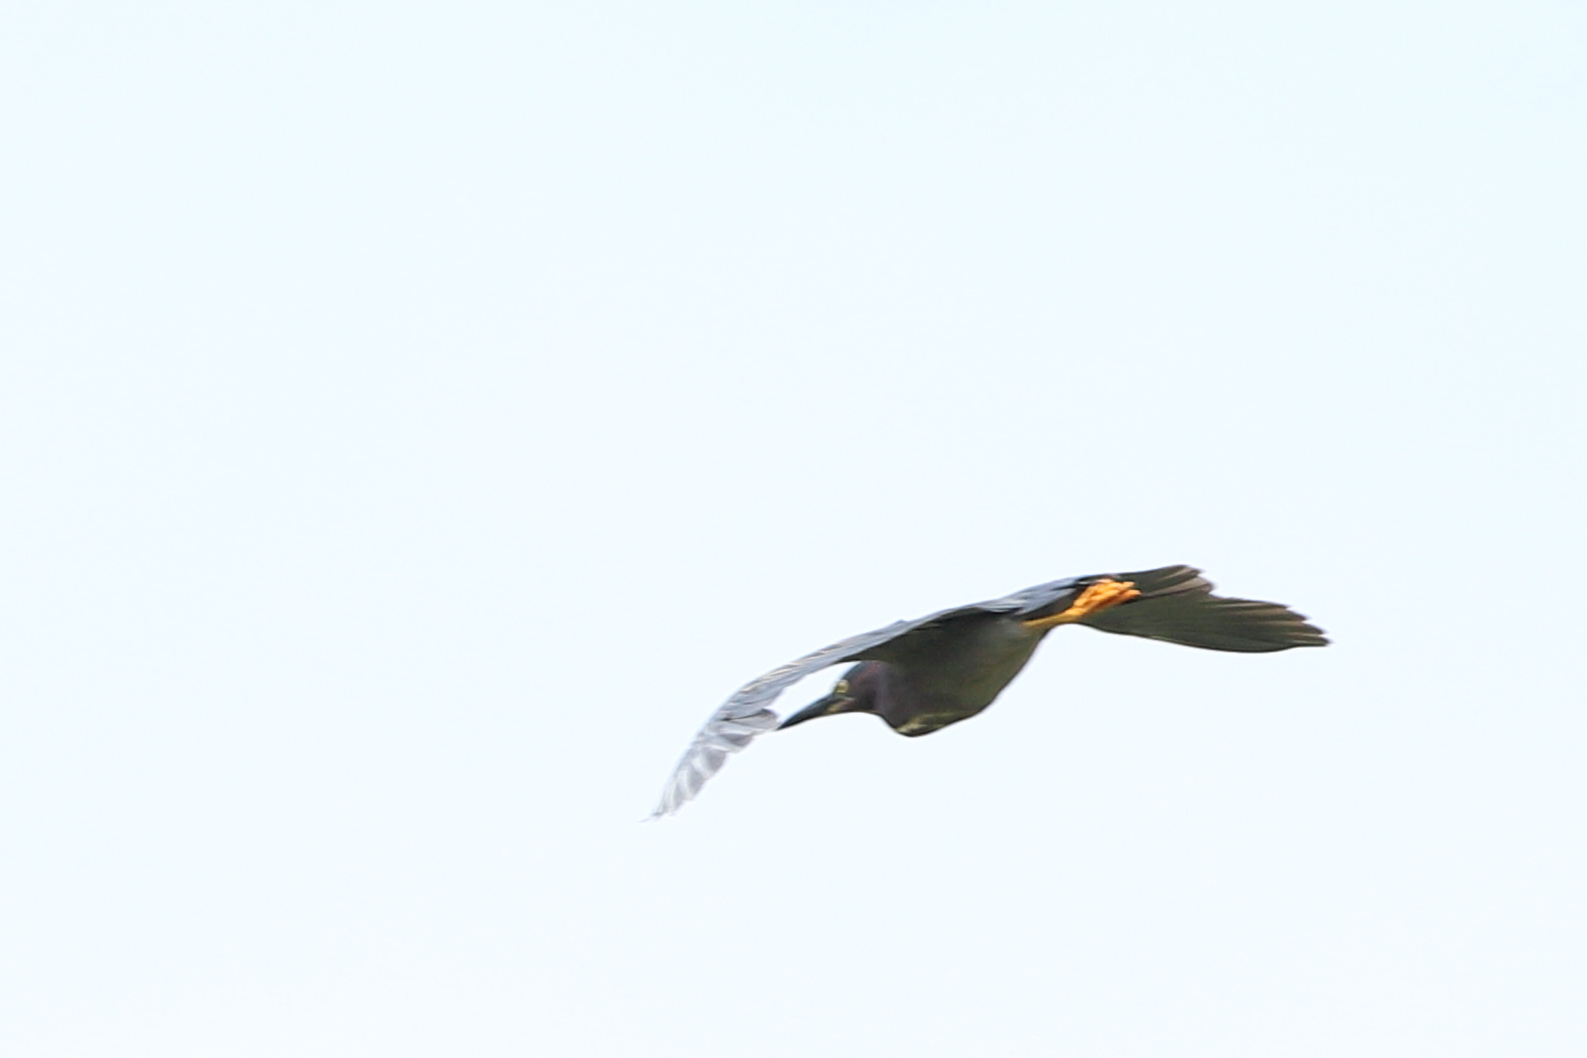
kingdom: Animalia
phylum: Chordata
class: Aves
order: Pelecaniformes
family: Ardeidae
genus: Butorides
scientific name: Butorides virescens
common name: Green heron
